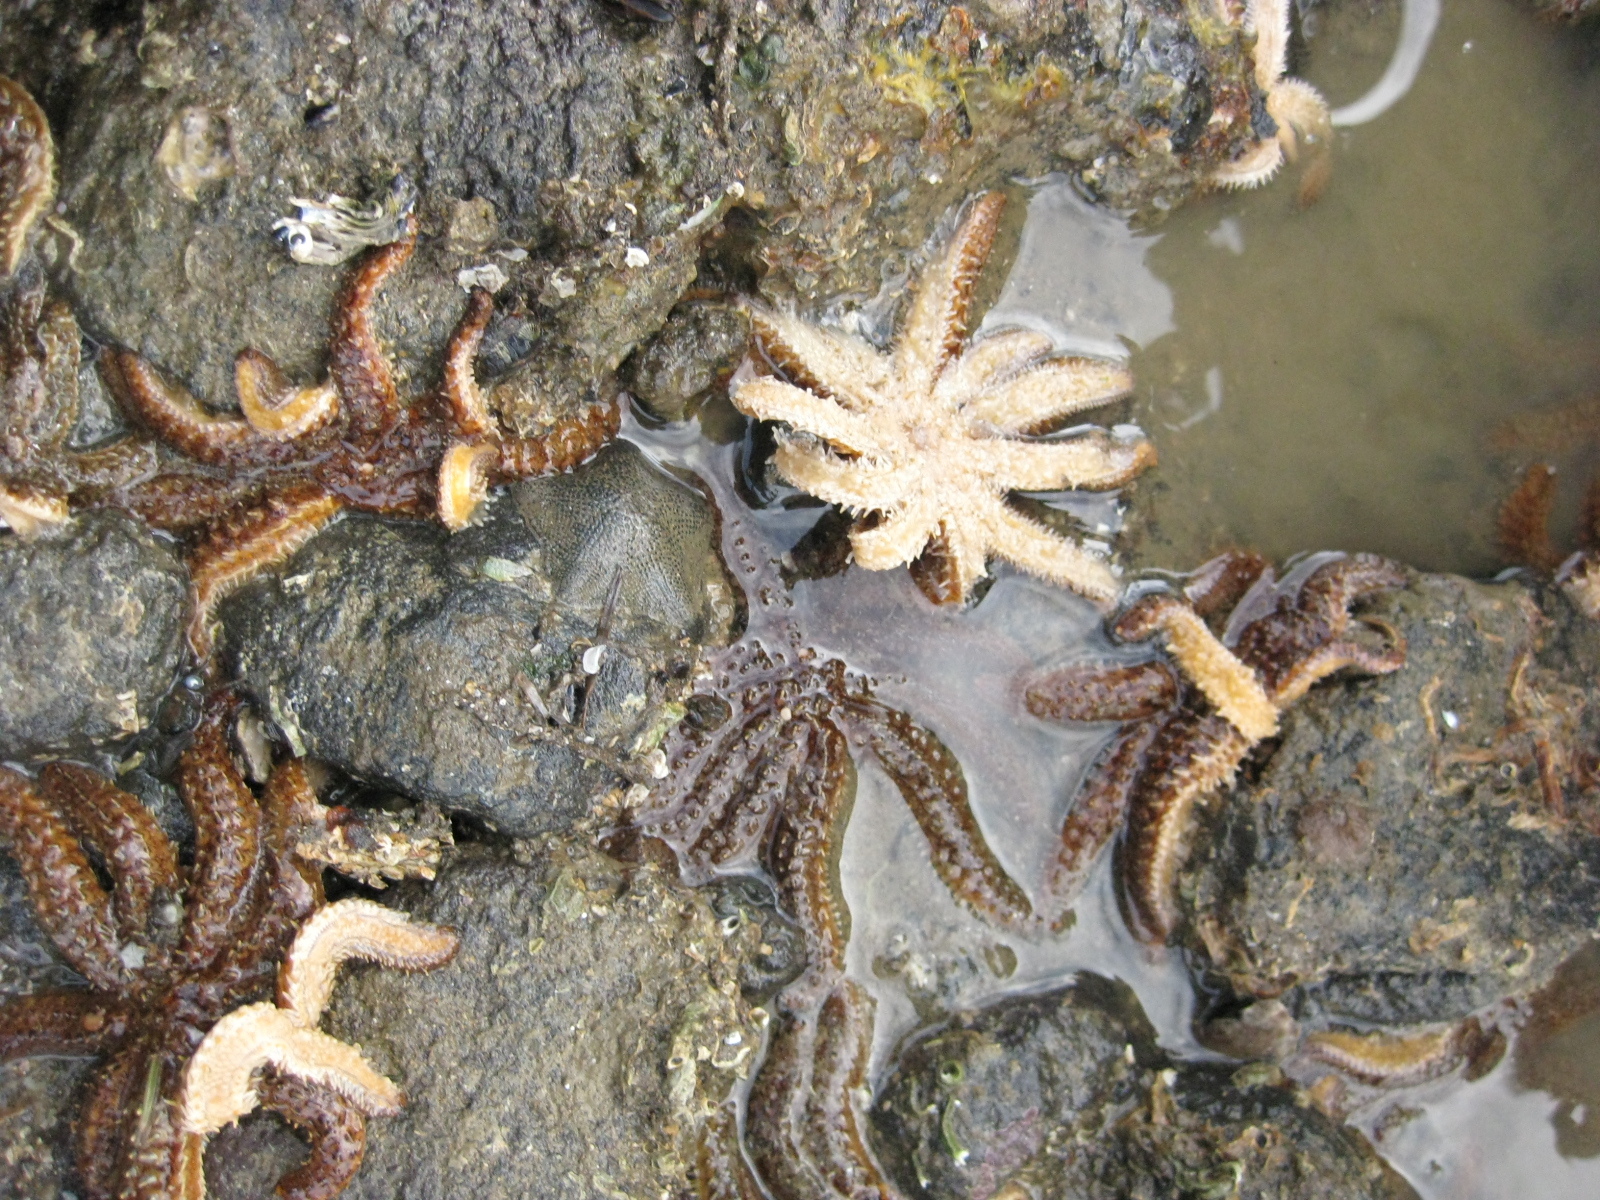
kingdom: Animalia
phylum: Echinodermata
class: Asteroidea
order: Forcipulatida
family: Asteriidae
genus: Coscinasterias
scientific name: Coscinasterias muricata
